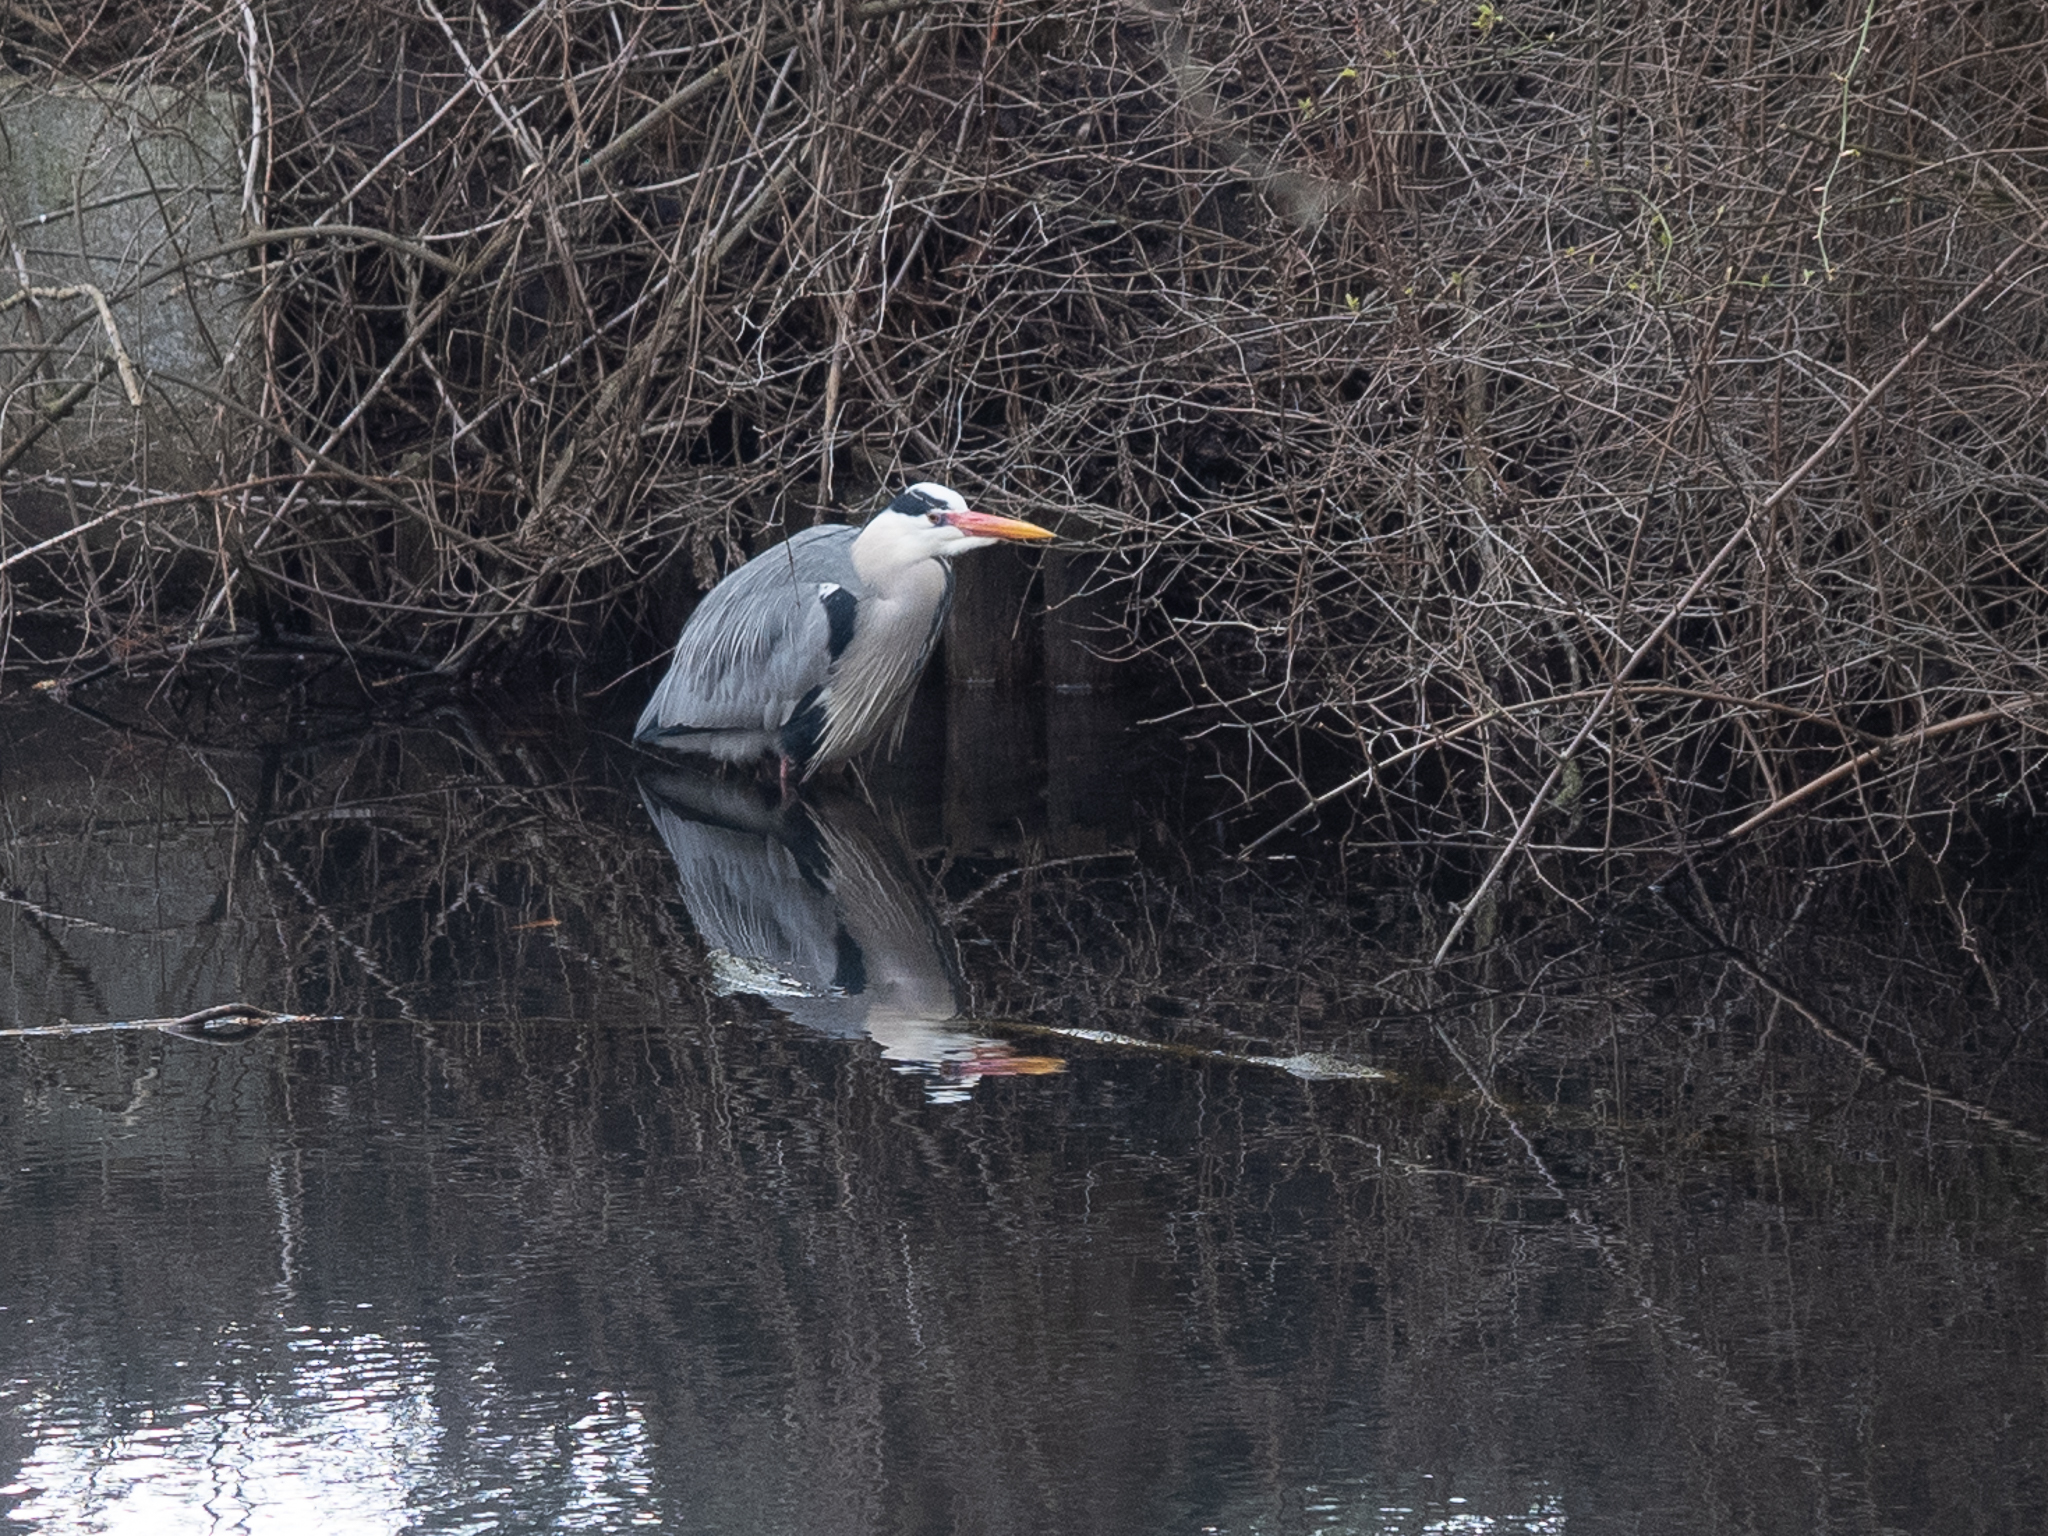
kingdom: Animalia
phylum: Chordata
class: Aves
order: Pelecaniformes
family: Ardeidae
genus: Ardea
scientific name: Ardea cinerea
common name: Grey heron
